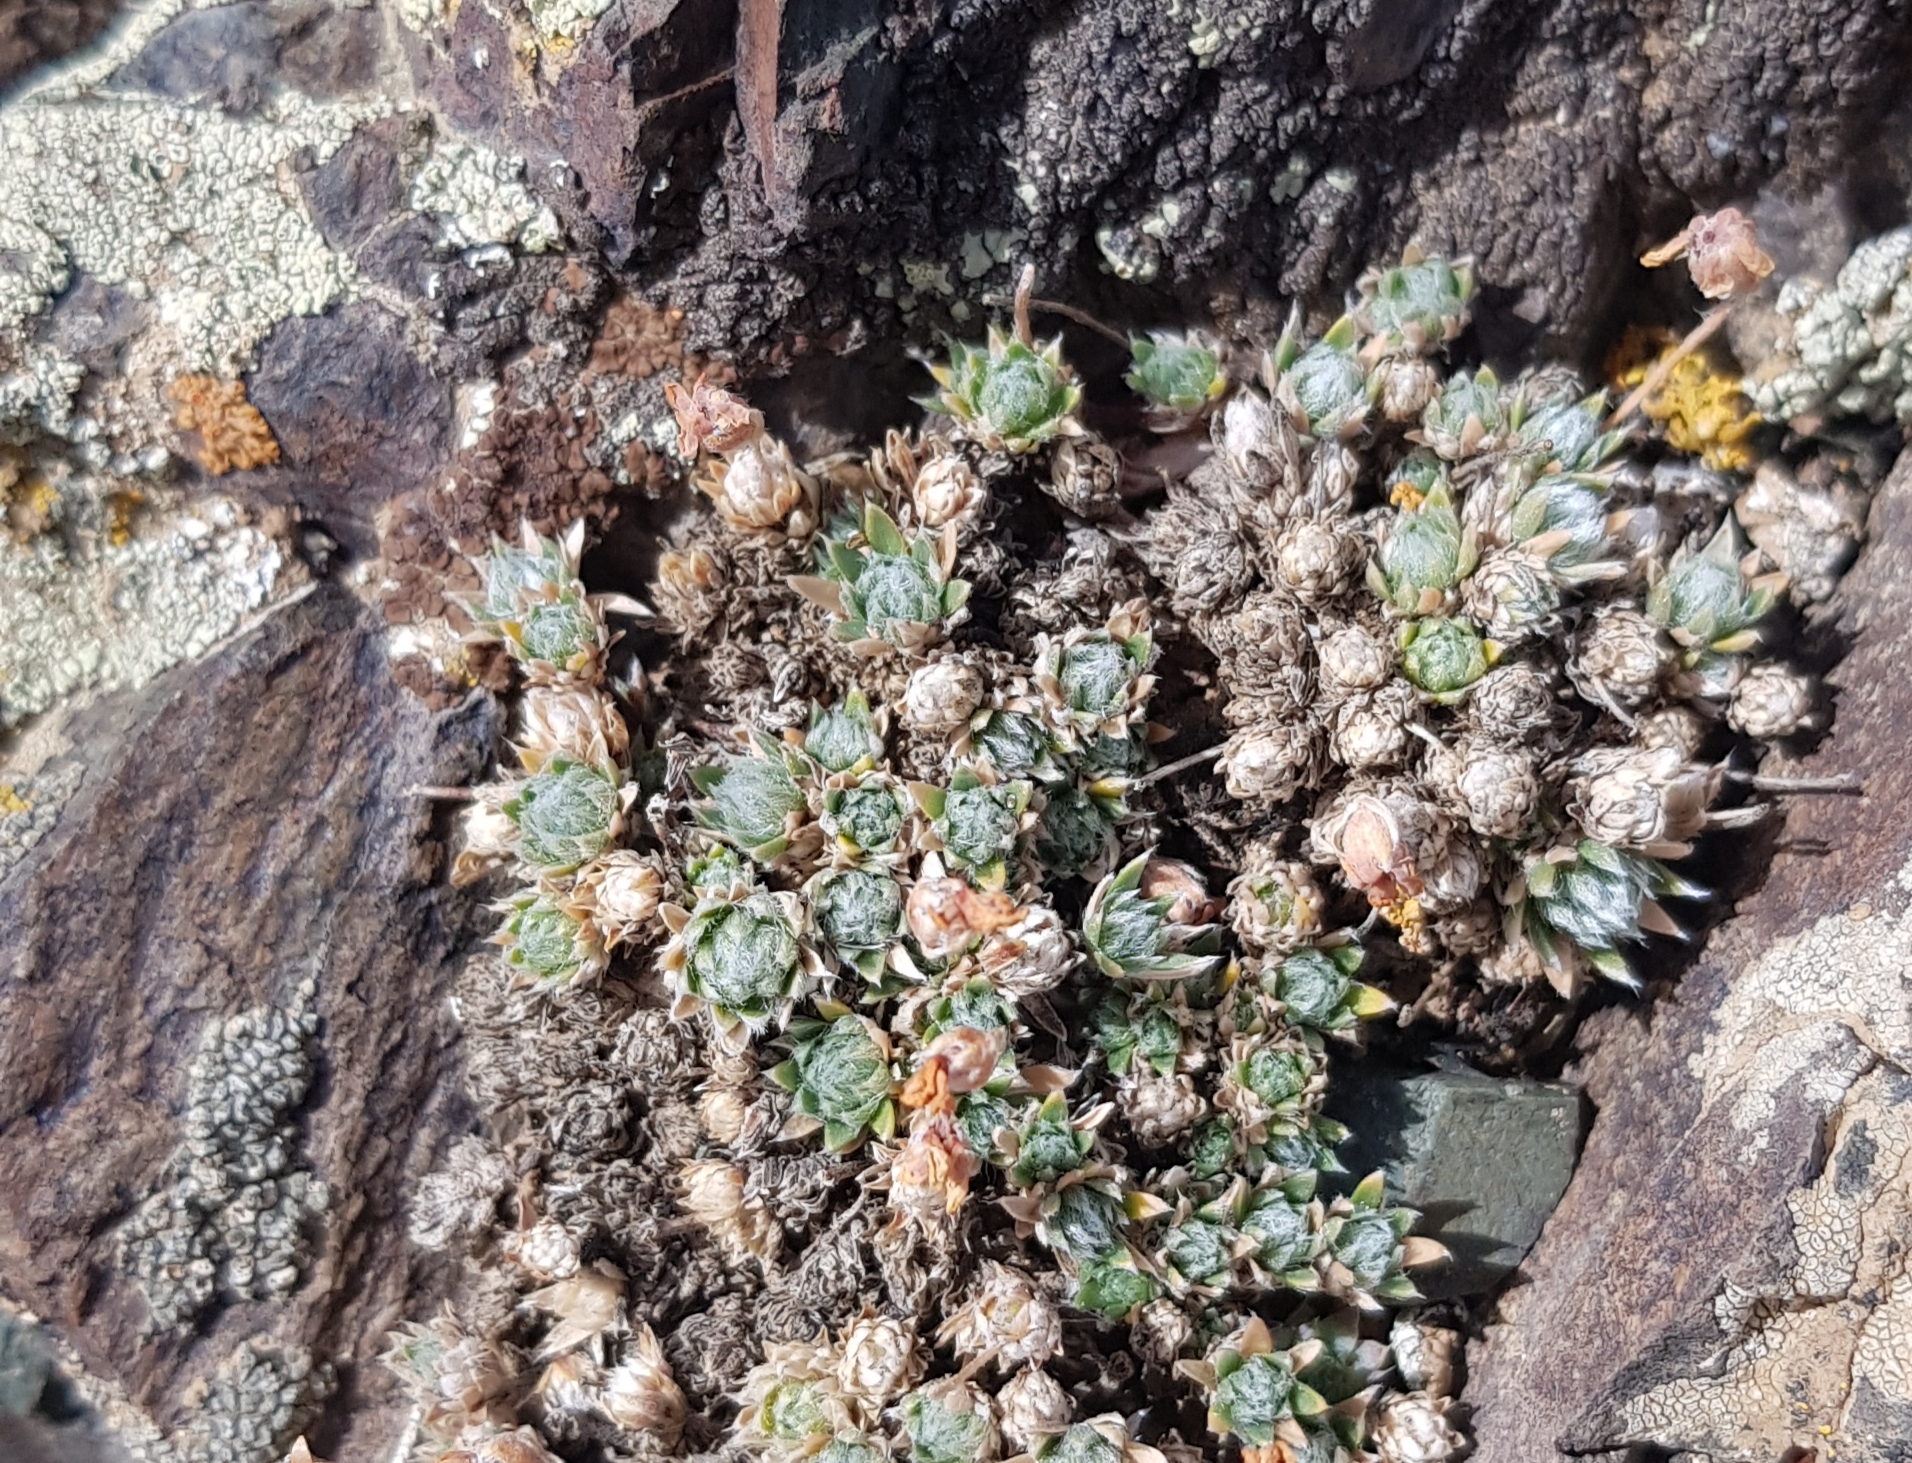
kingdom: Plantae
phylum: Tracheophyta
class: Magnoliopsida
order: Ericales
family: Primulaceae
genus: Androsace
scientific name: Androsace incana
